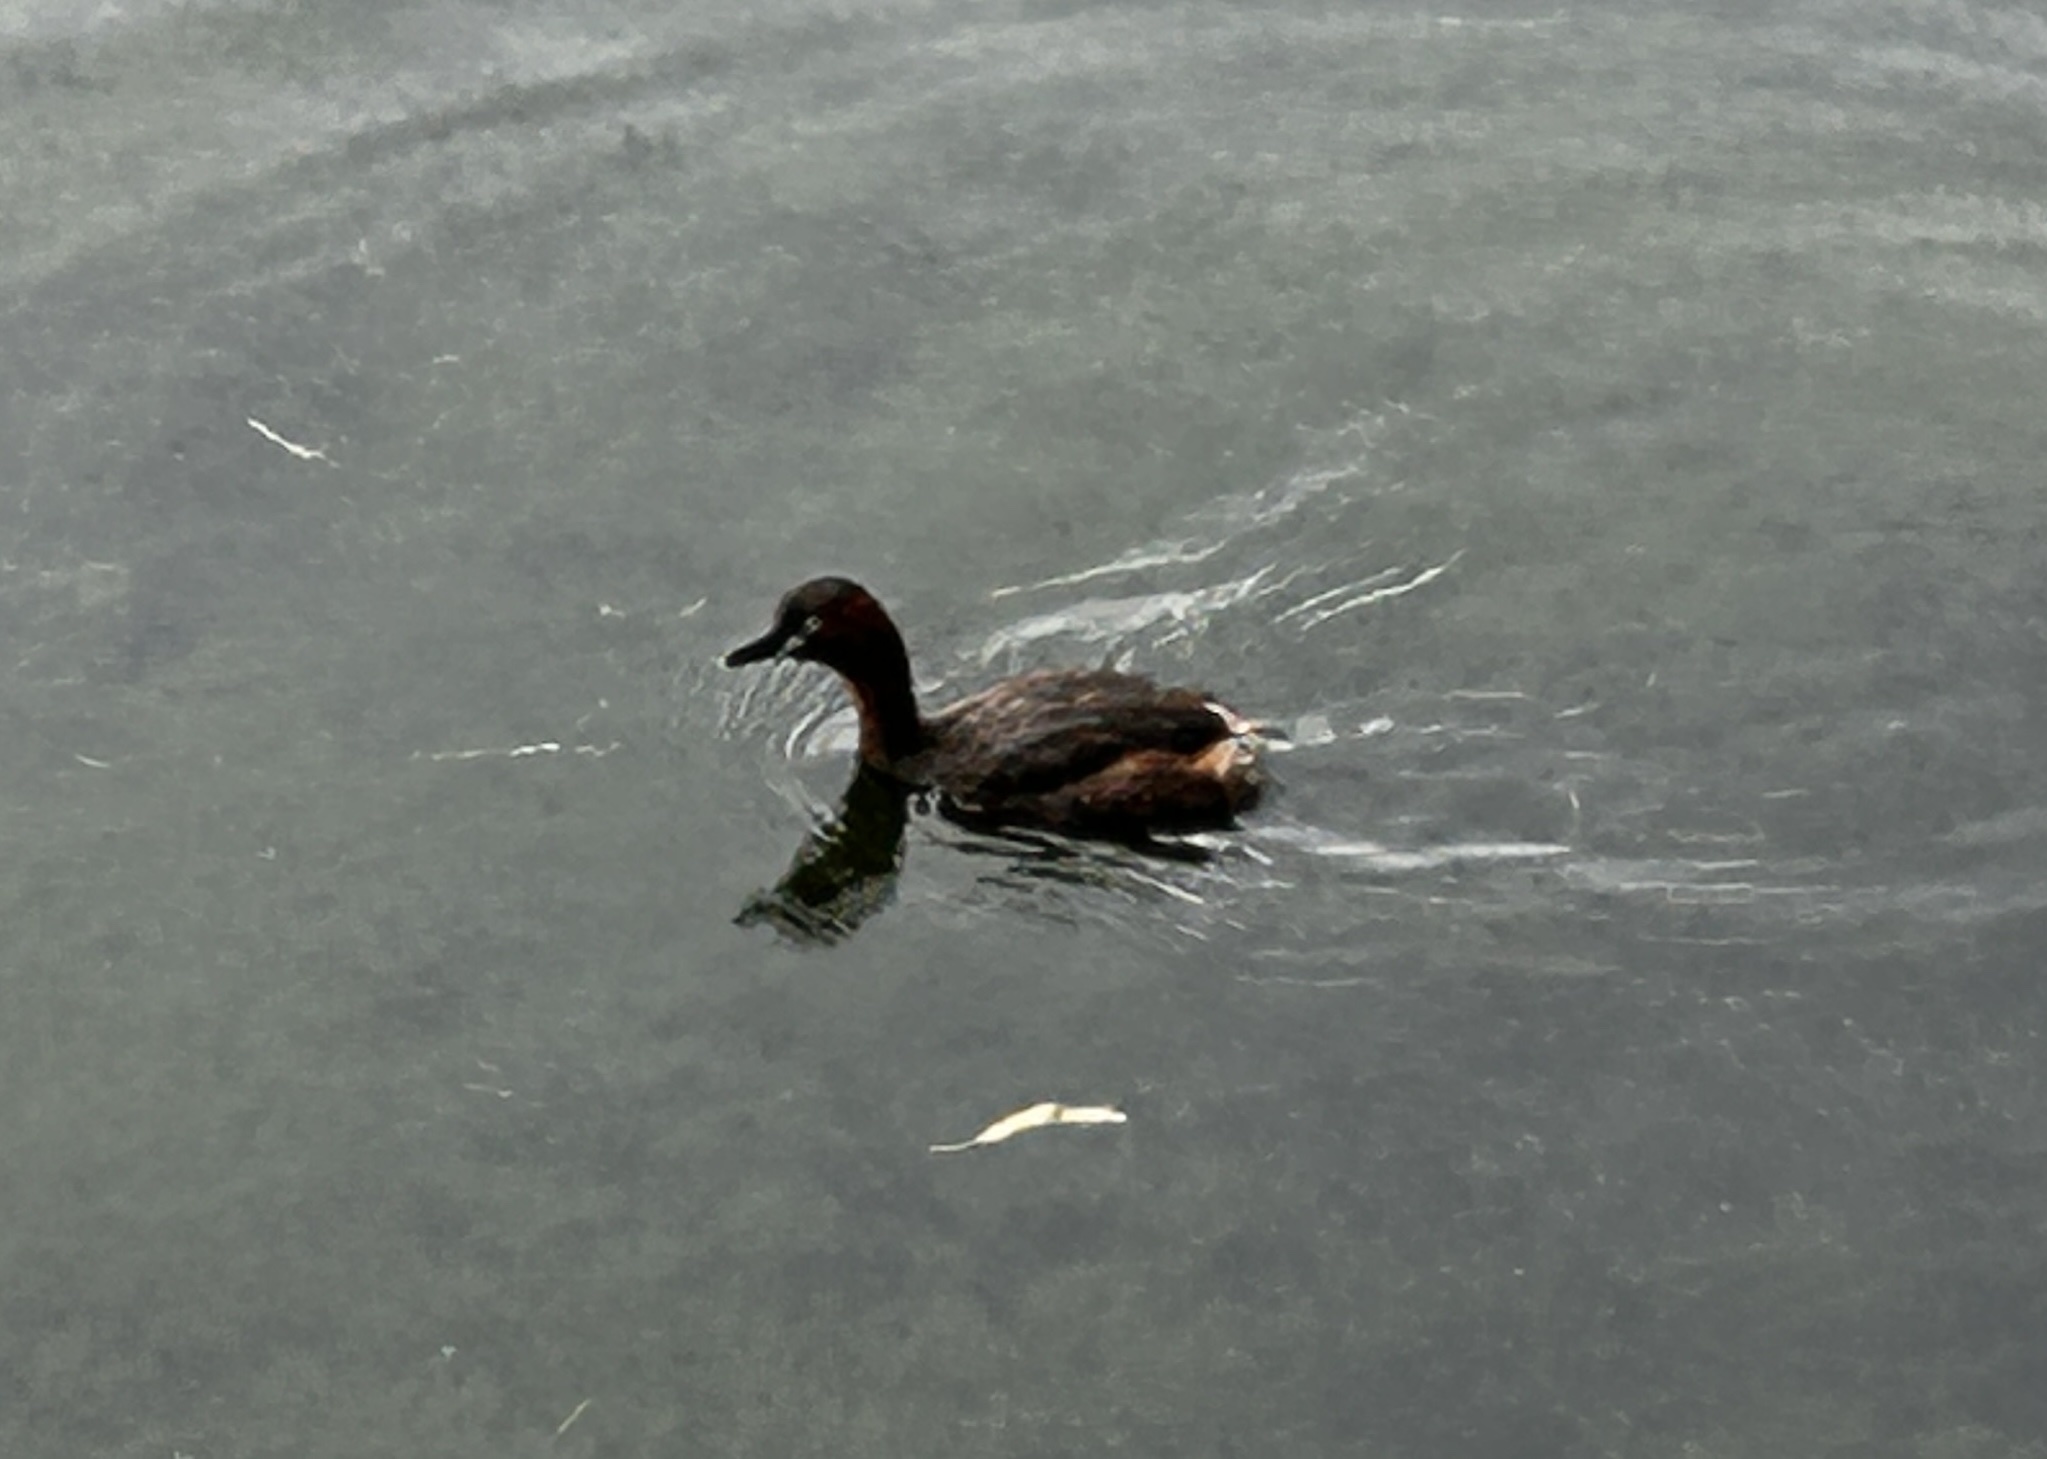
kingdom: Animalia
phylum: Chordata
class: Aves
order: Podicipediformes
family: Podicipedidae
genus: Tachybaptus
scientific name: Tachybaptus ruficollis
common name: Little grebe
